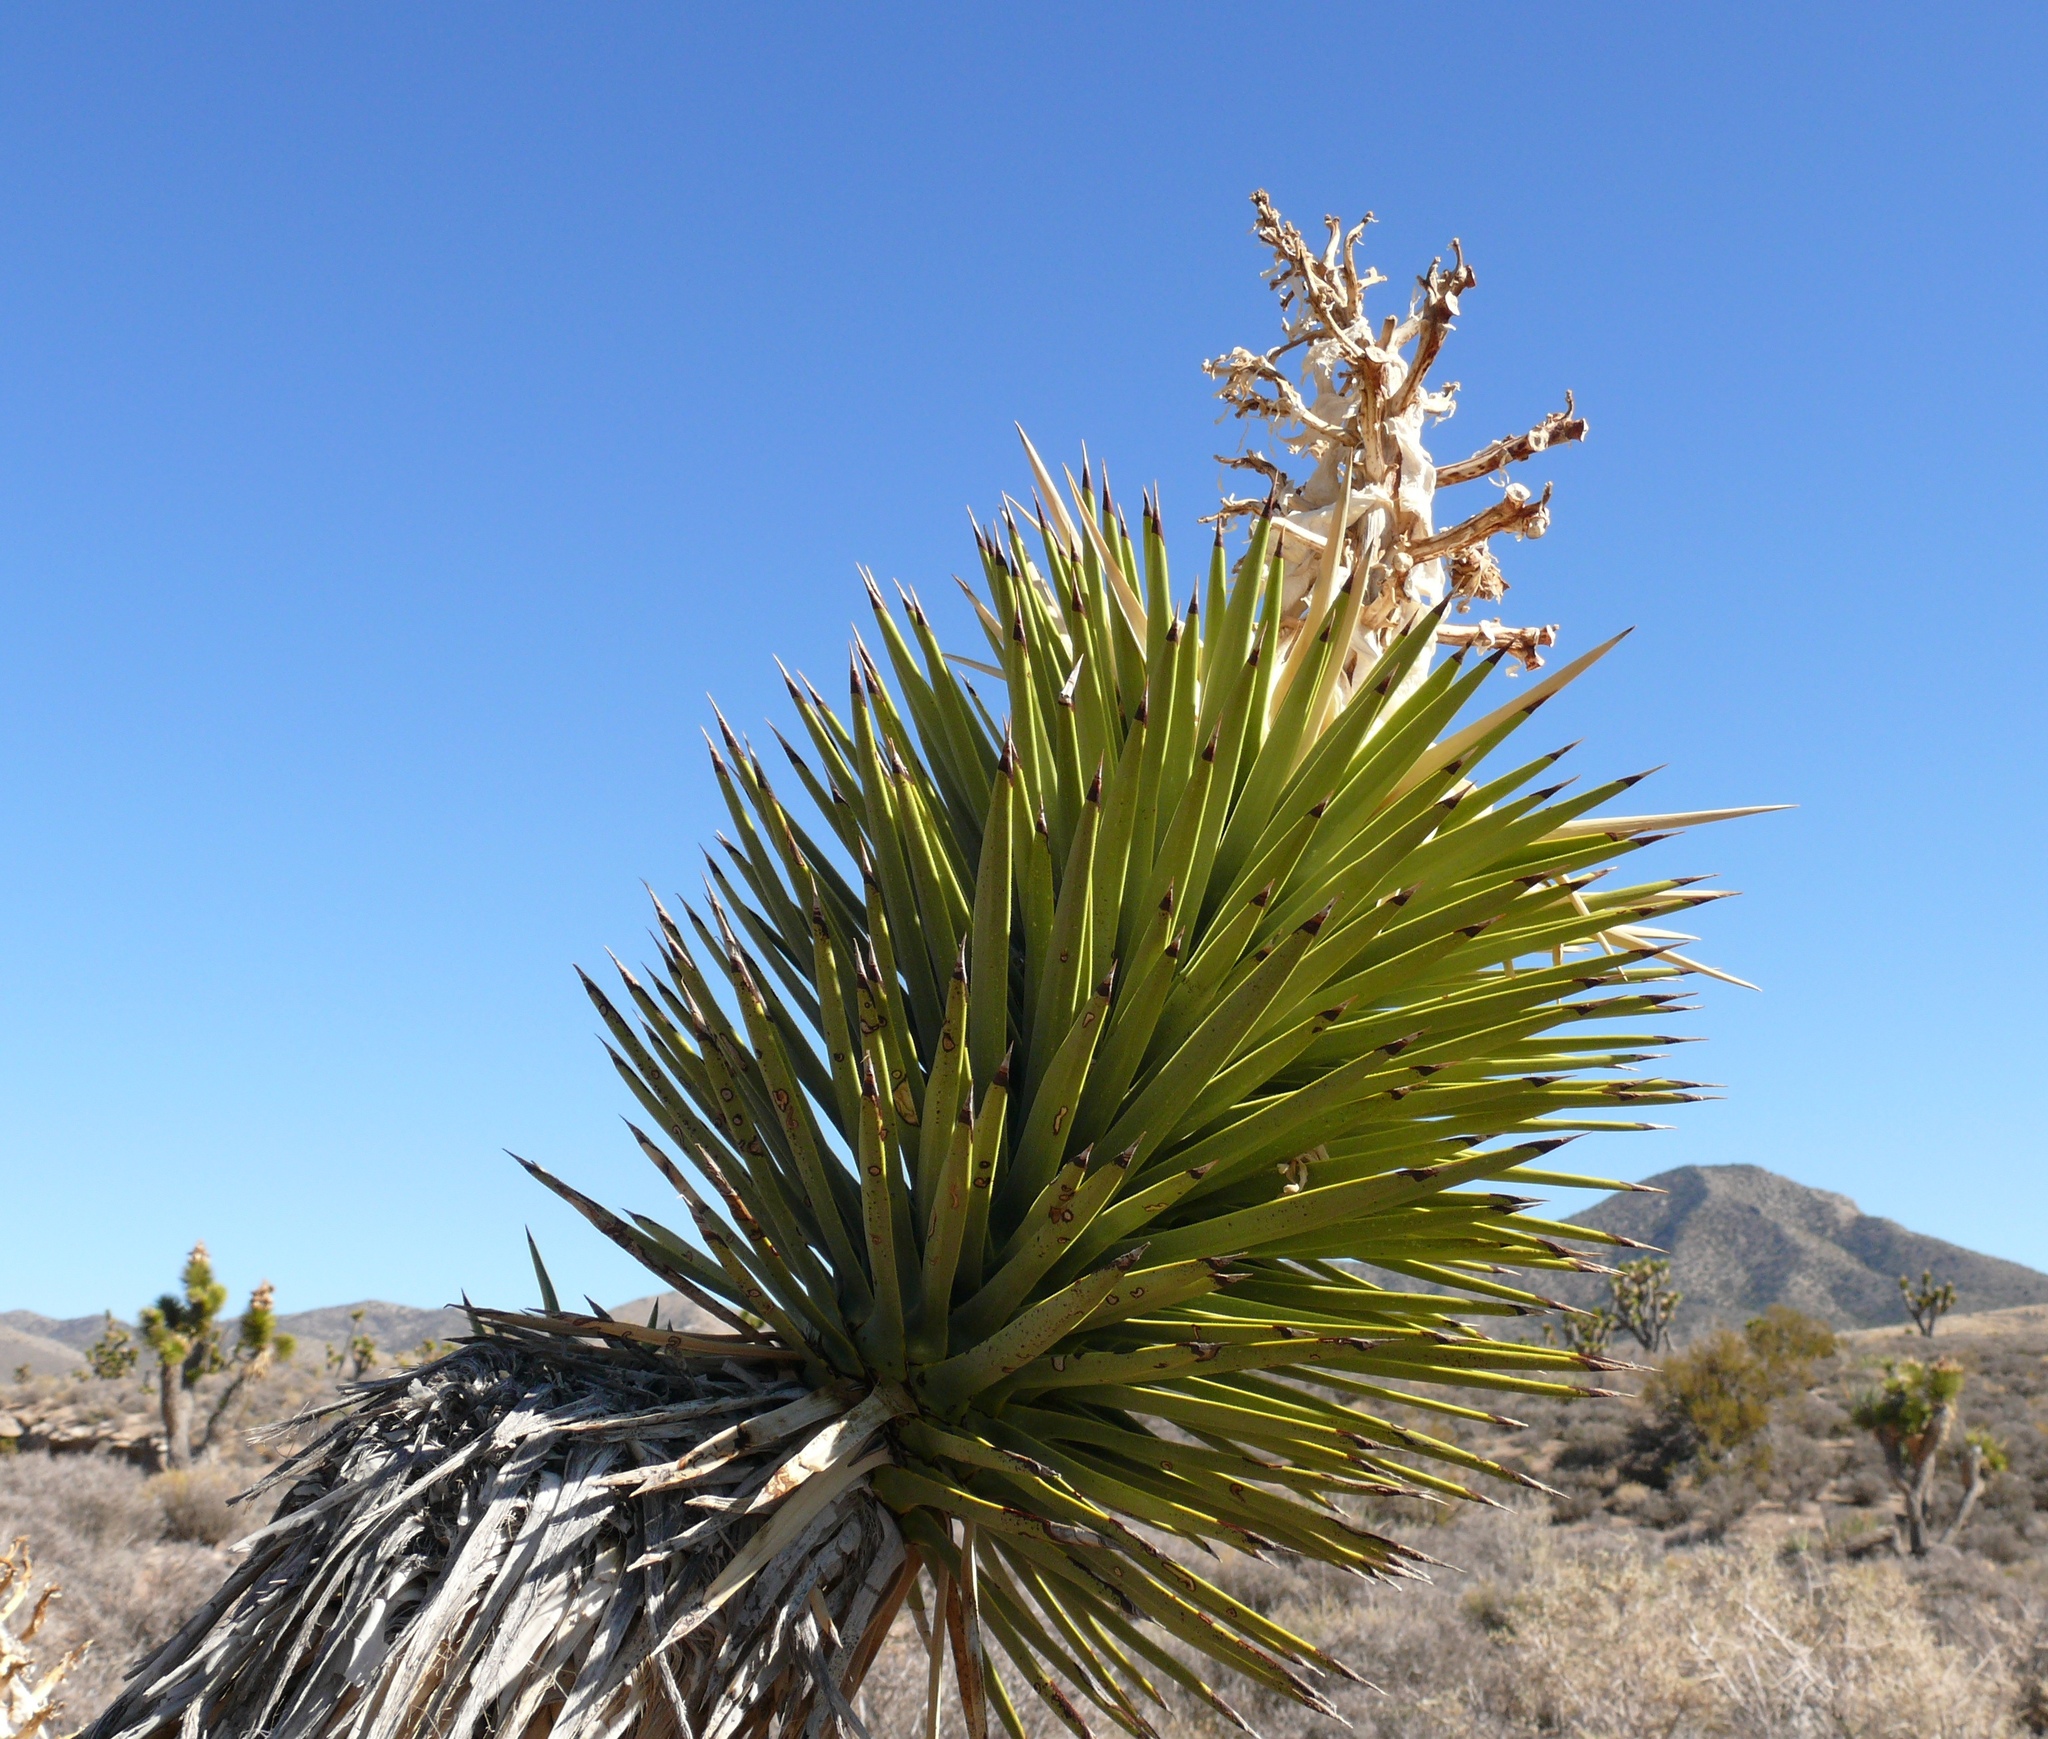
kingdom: Plantae
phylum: Tracheophyta
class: Liliopsida
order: Asparagales
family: Asparagaceae
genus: Yucca
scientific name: Yucca brevifolia
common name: Joshua tree
